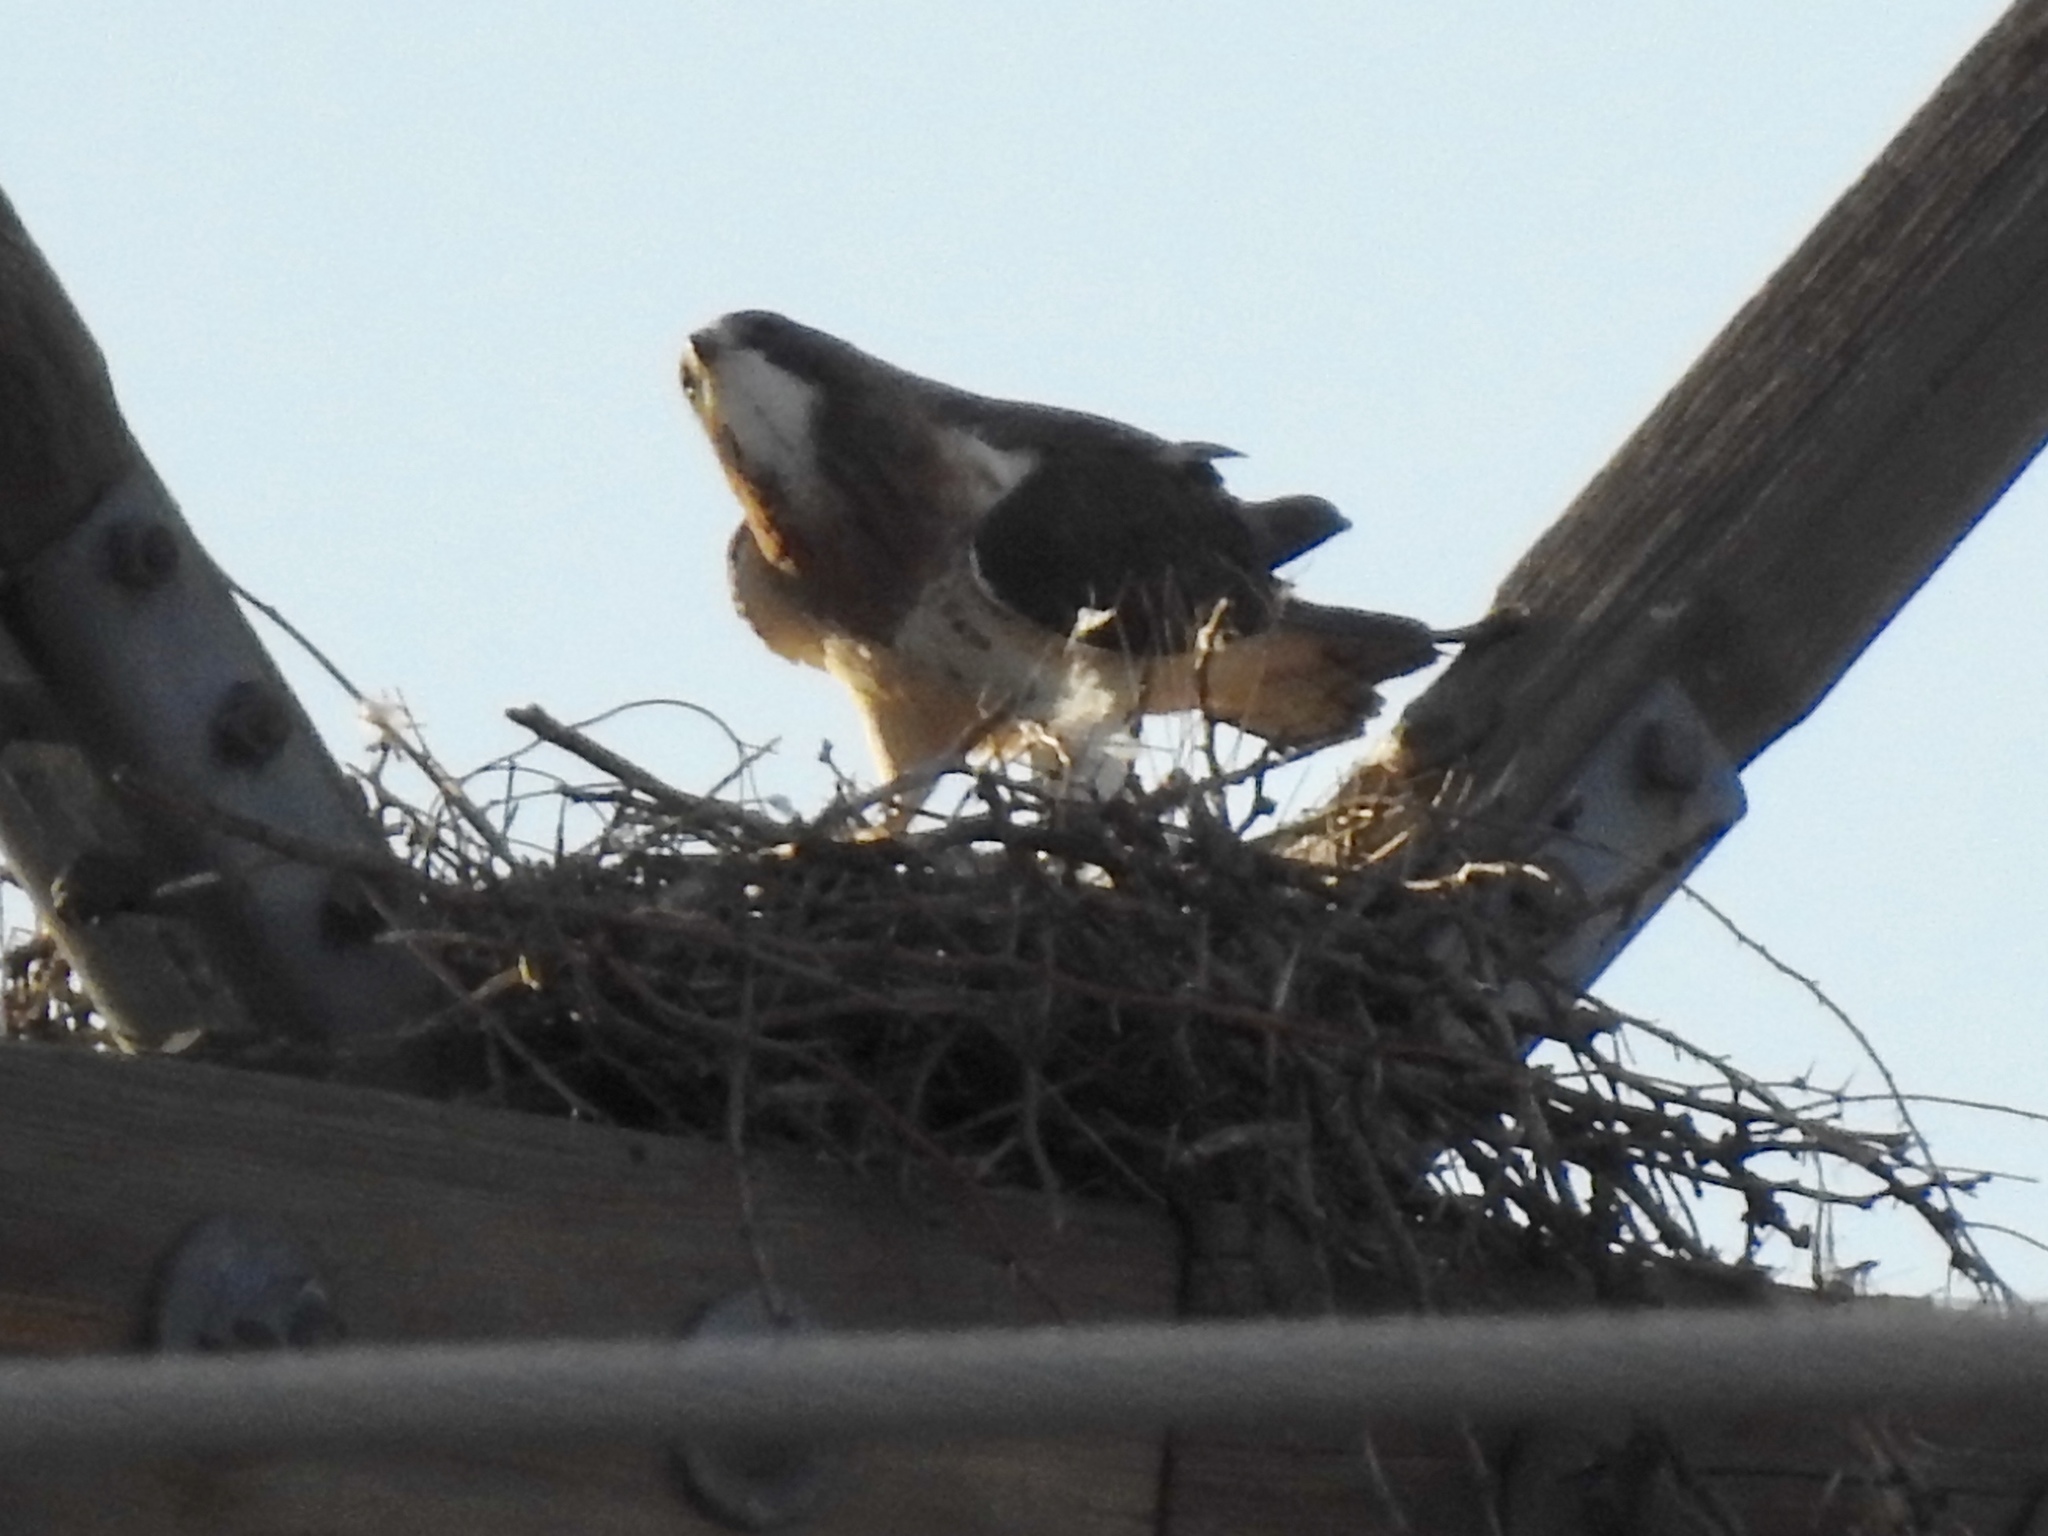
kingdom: Animalia
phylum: Chordata
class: Aves
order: Accipitriformes
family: Accipitridae
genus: Buteo
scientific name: Buteo swainsoni
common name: Swainson's hawk
